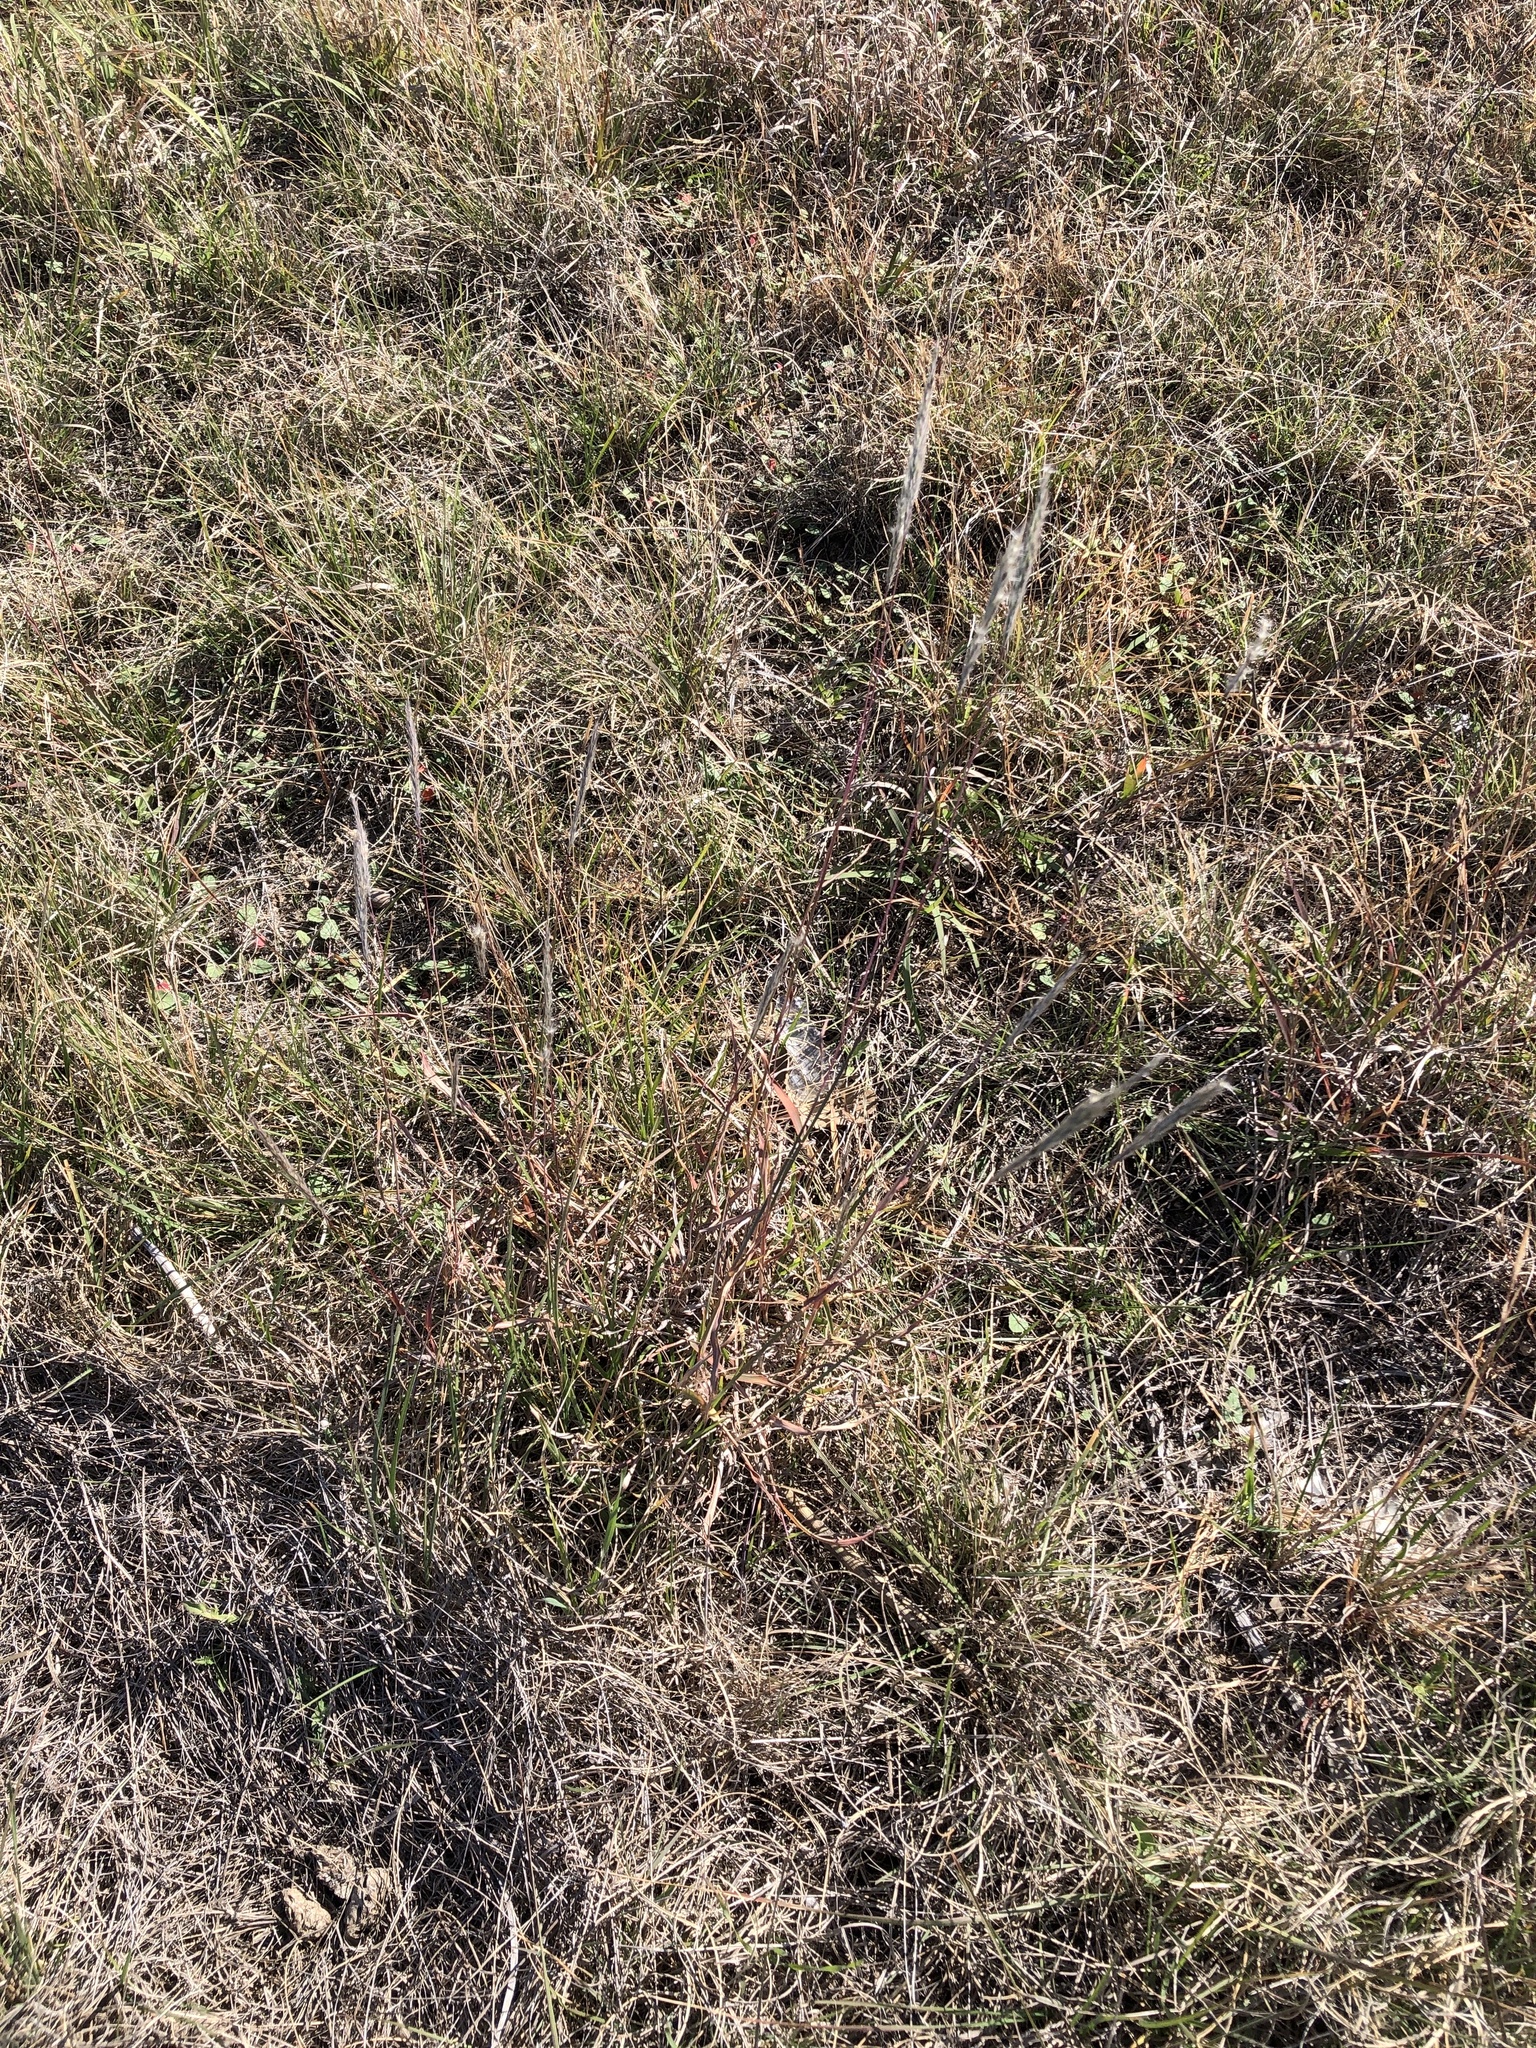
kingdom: Plantae
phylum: Tracheophyta
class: Liliopsida
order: Poales
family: Poaceae
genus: Bothriochloa
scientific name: Bothriochloa torreyana
